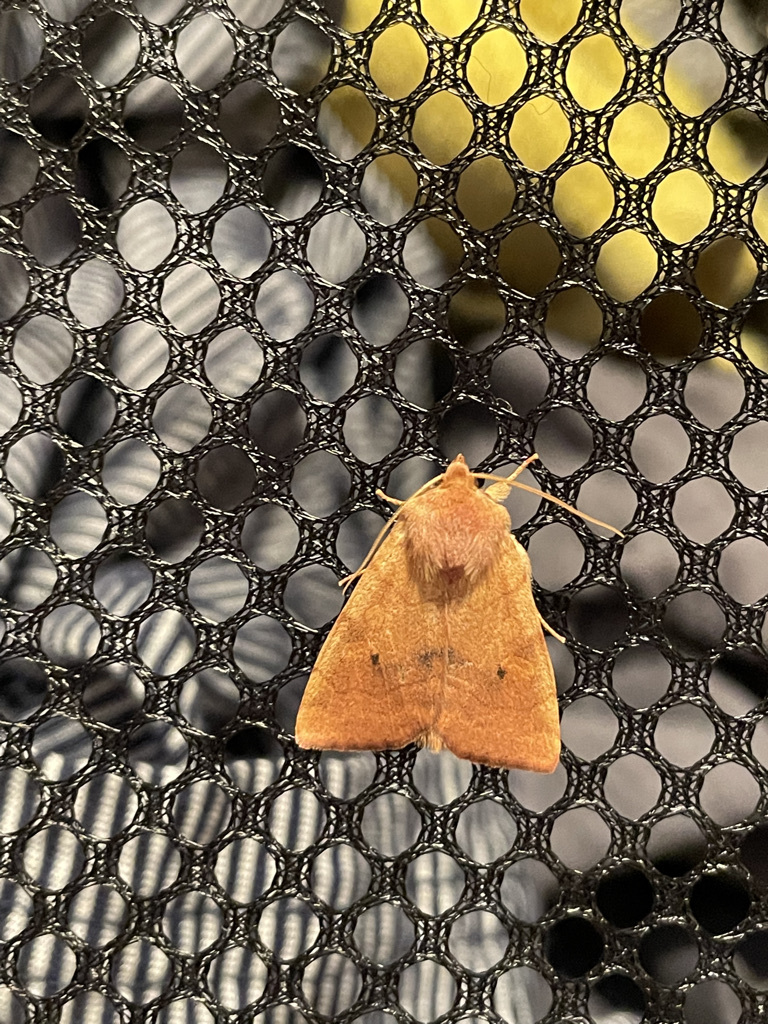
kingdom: Animalia
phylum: Arthropoda
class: Insecta
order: Lepidoptera
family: Noctuidae
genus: Enargia
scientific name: Enargia infumata
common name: Smoked sallow
